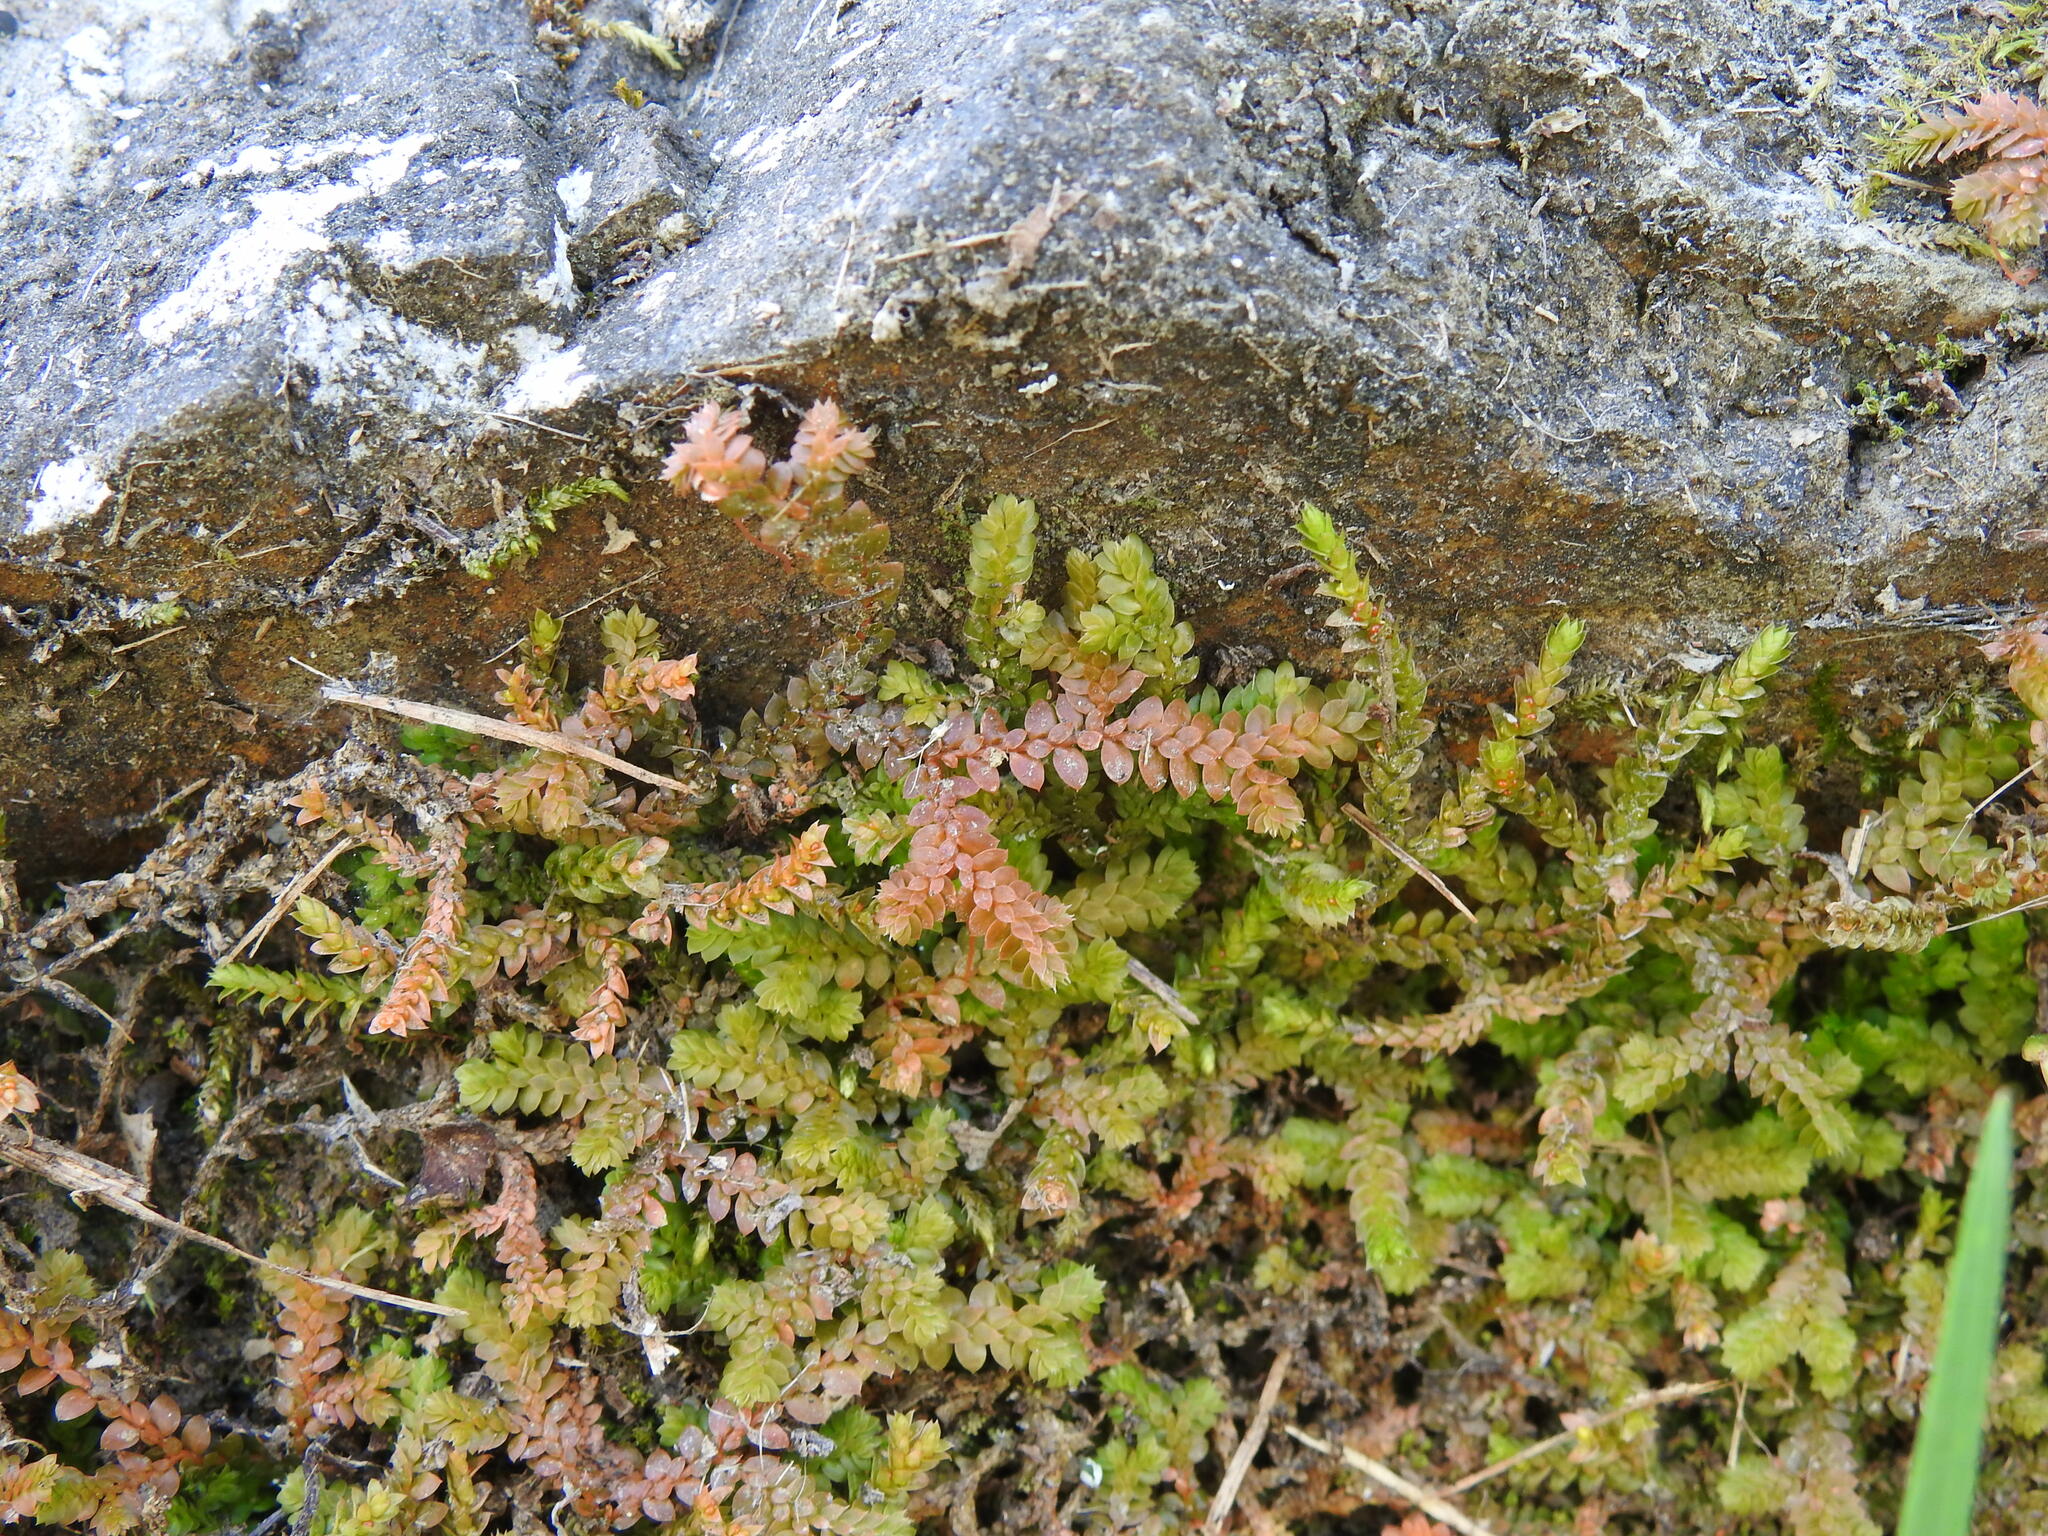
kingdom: Plantae
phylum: Tracheophyta
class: Lycopodiopsida
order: Selaginellales
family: Selaginellaceae
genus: Selaginella
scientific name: Selaginella denticulata
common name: Toothed-leaved clubmoss
